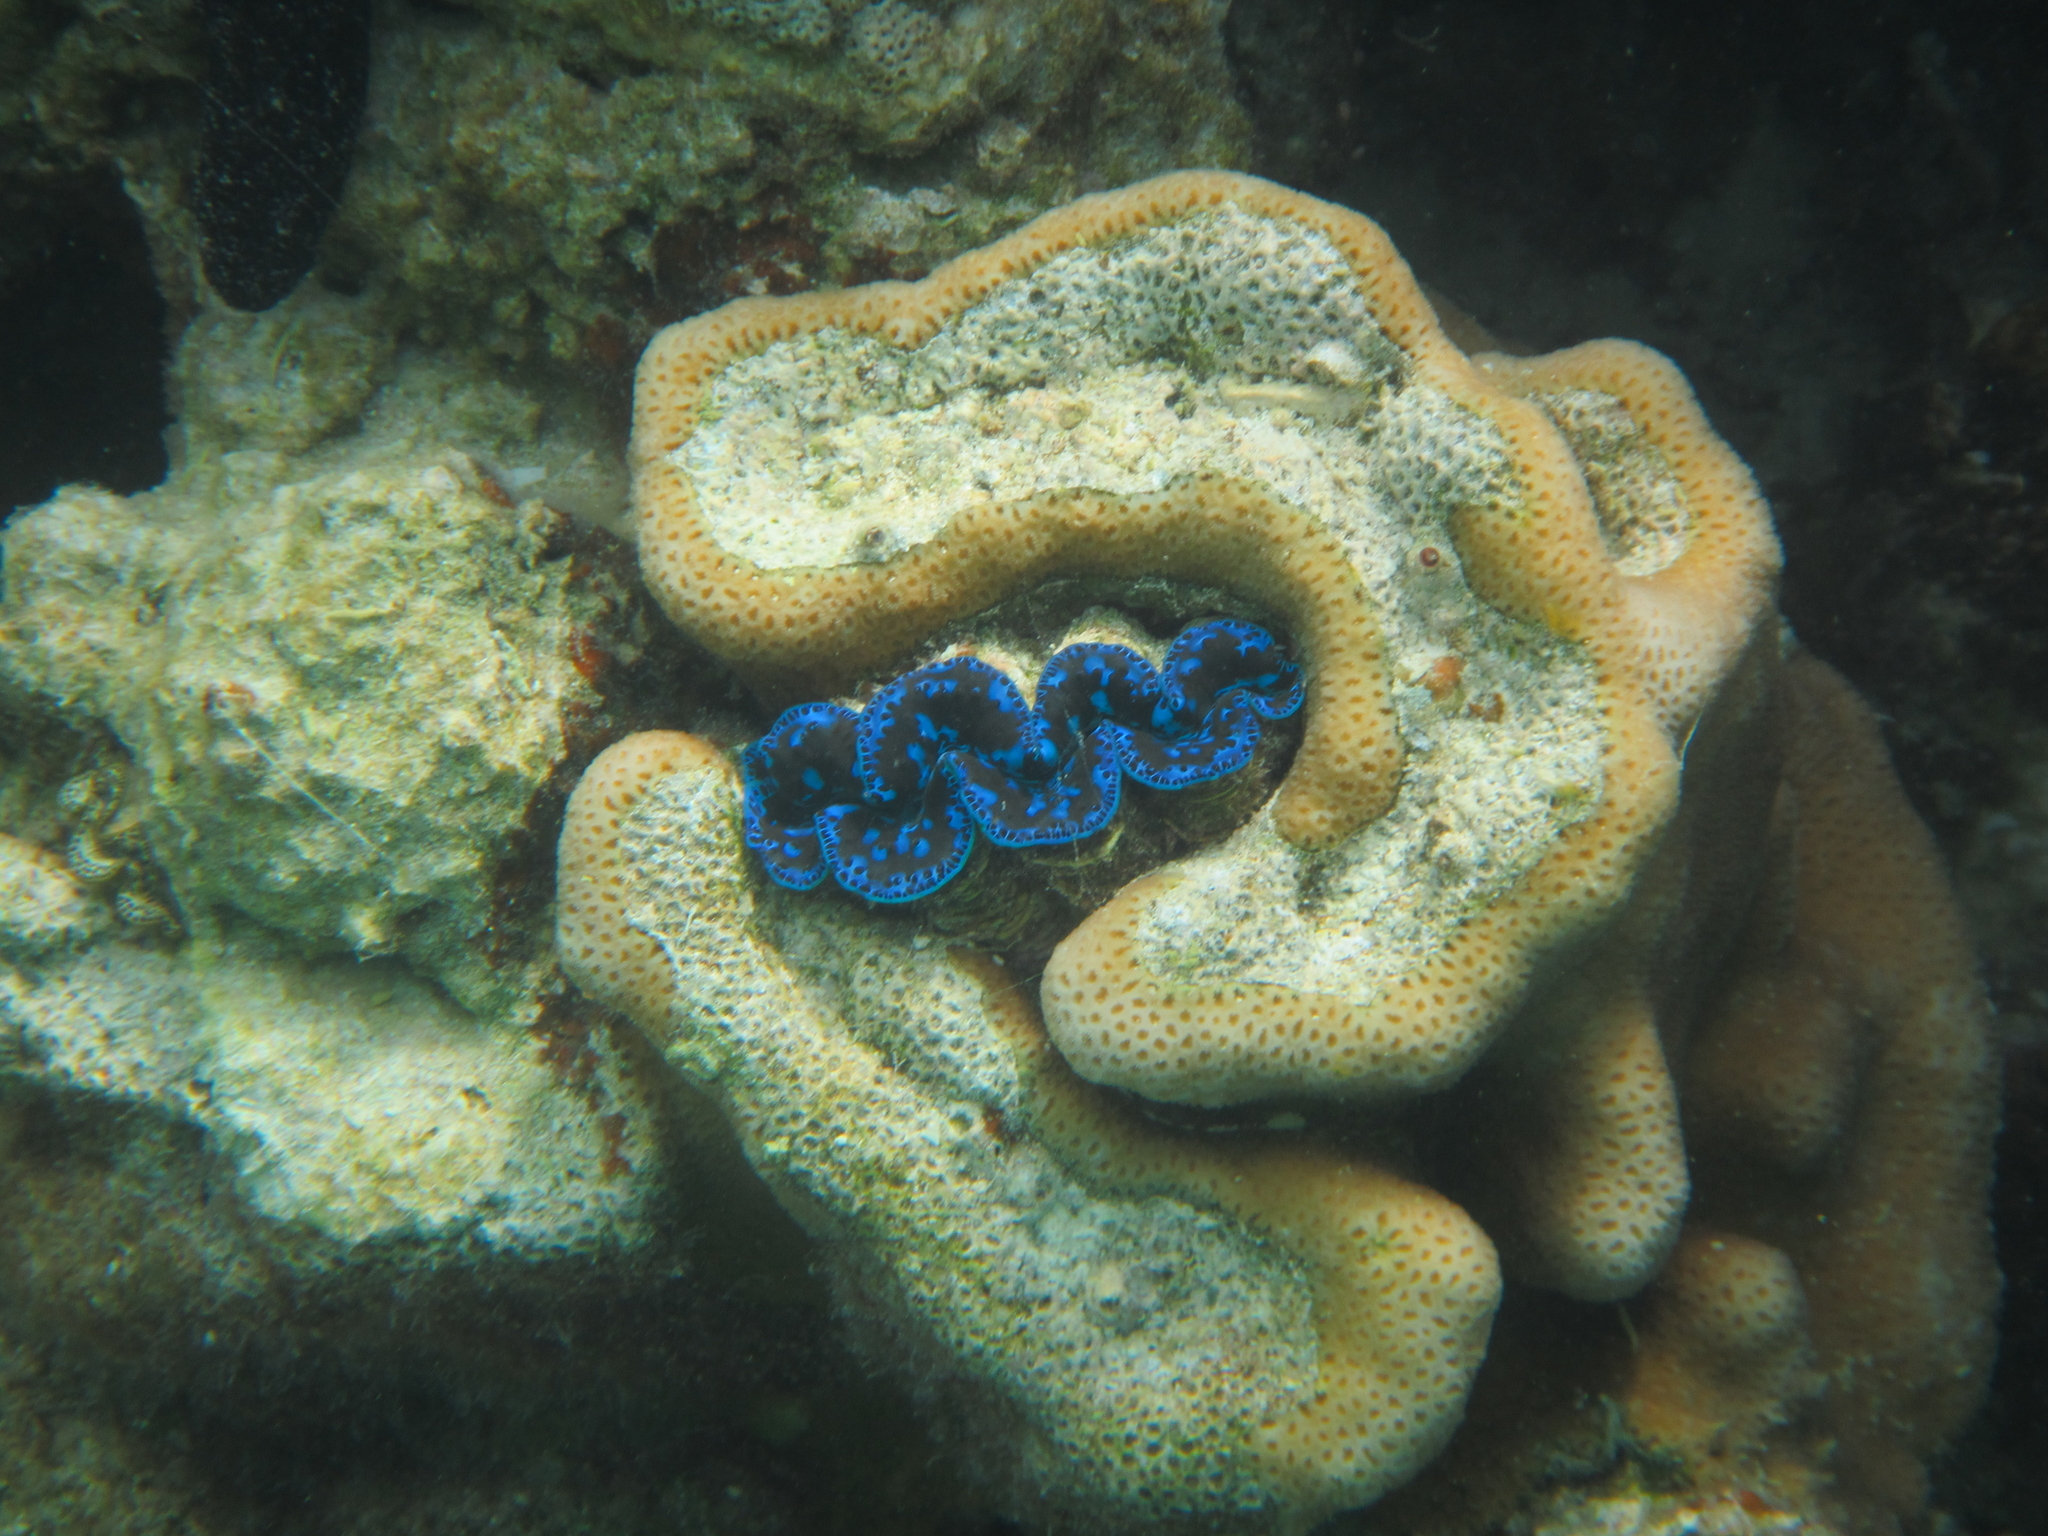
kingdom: Animalia
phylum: Mollusca
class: Bivalvia
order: Cardiida
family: Cardiidae
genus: Tridacna
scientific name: Tridacna maxima
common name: Small giant clam
